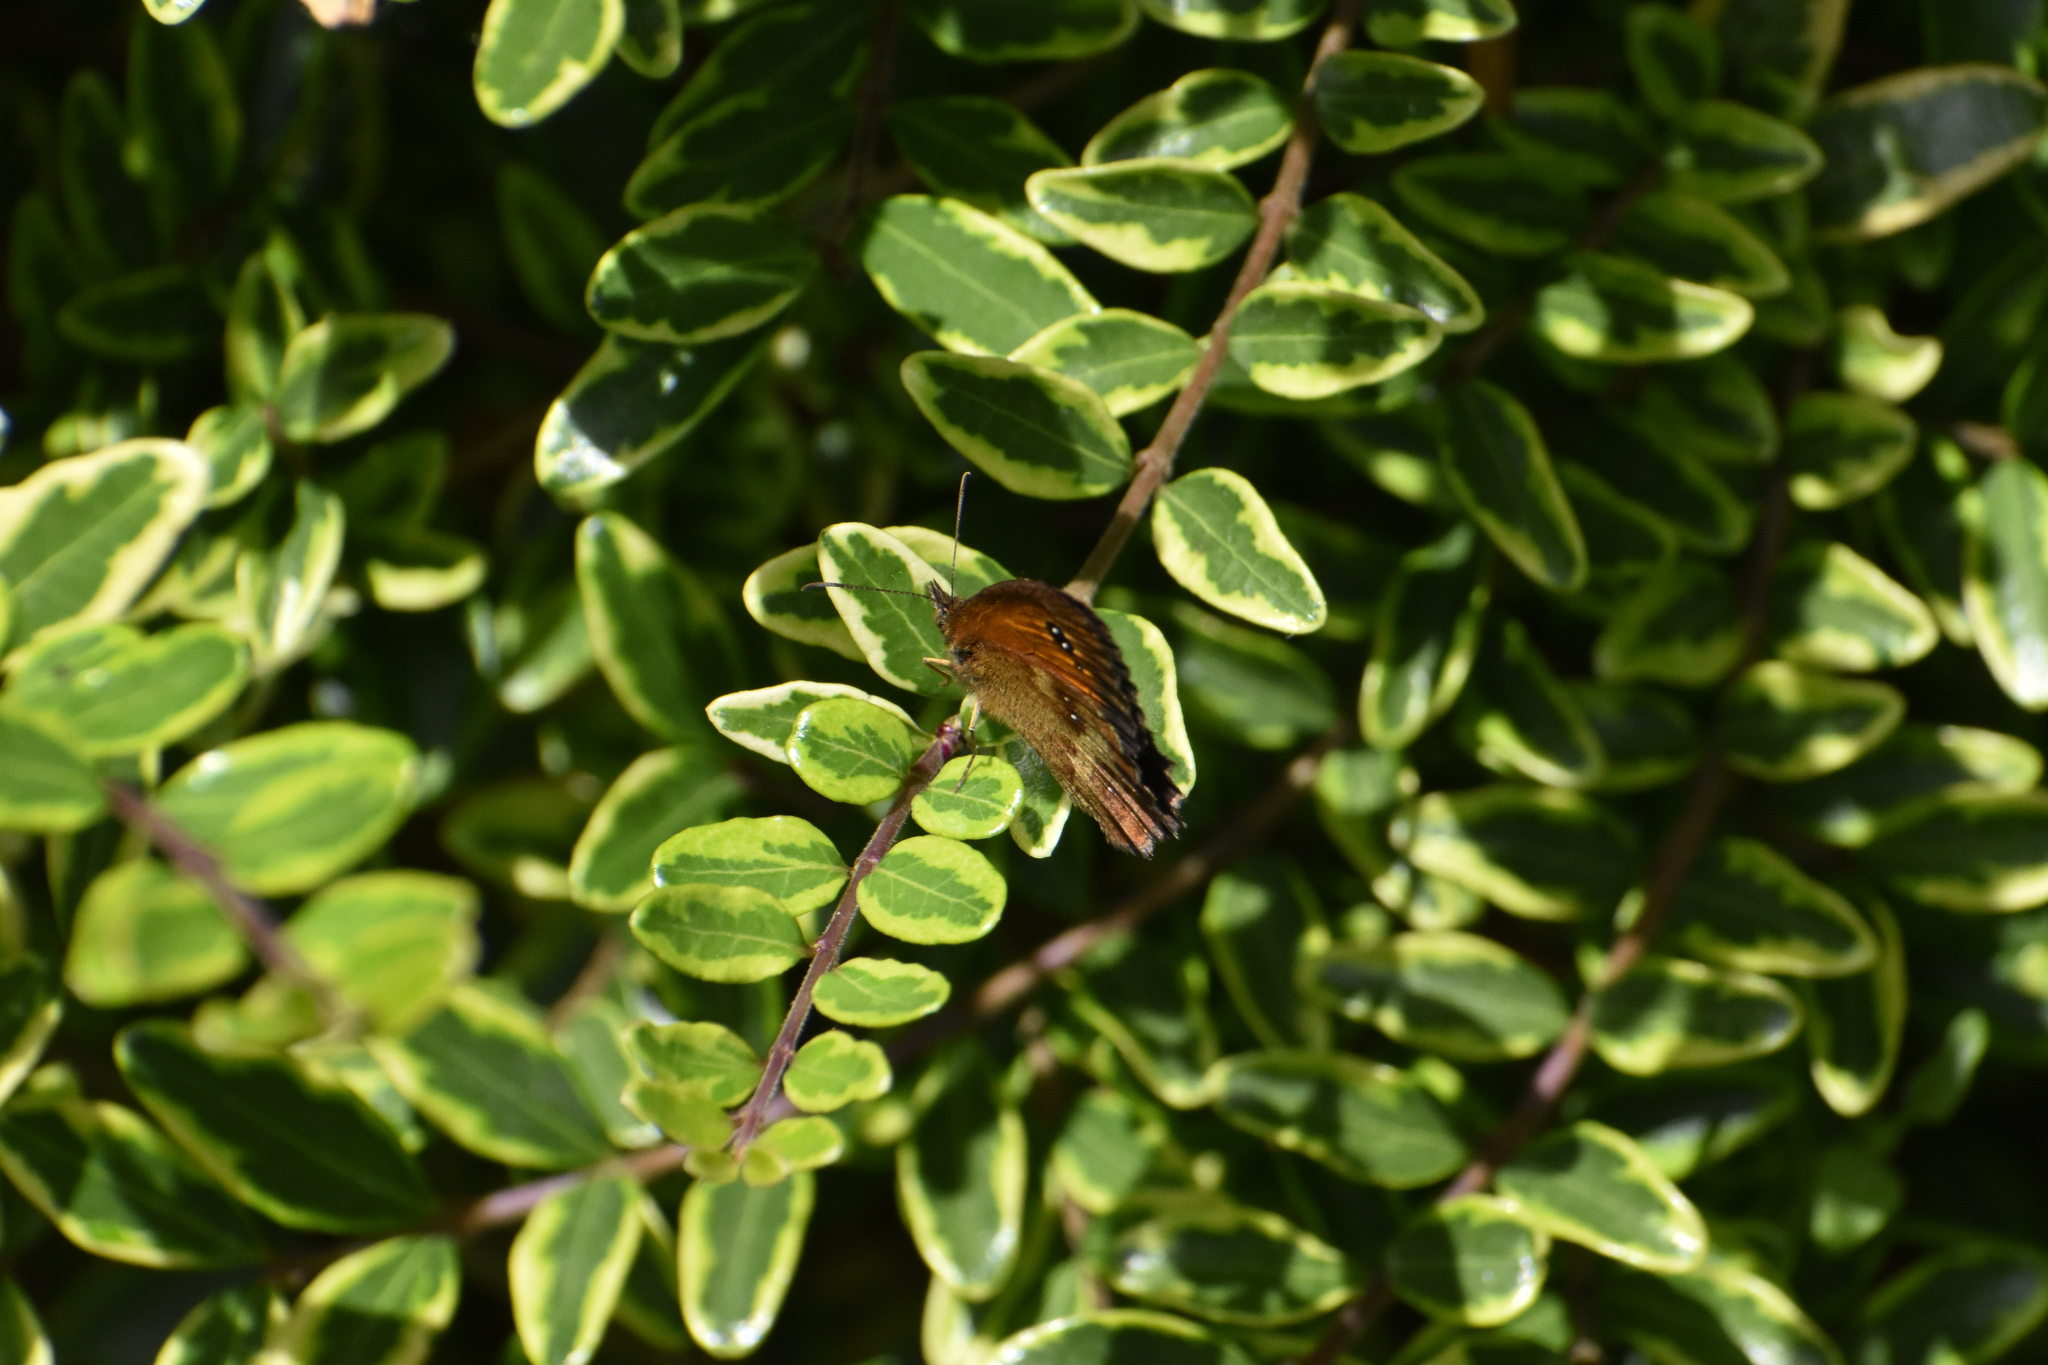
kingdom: Animalia
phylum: Arthropoda
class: Insecta
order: Lepidoptera
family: Nymphalidae
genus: Pyronia
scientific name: Pyronia tithonus
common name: Gatekeeper
